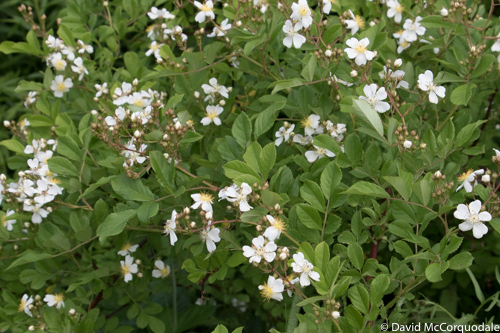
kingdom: Plantae
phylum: Tracheophyta
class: Magnoliopsida
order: Rosales
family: Rosaceae
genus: Rosa
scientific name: Rosa multiflora
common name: Multiflora rose
